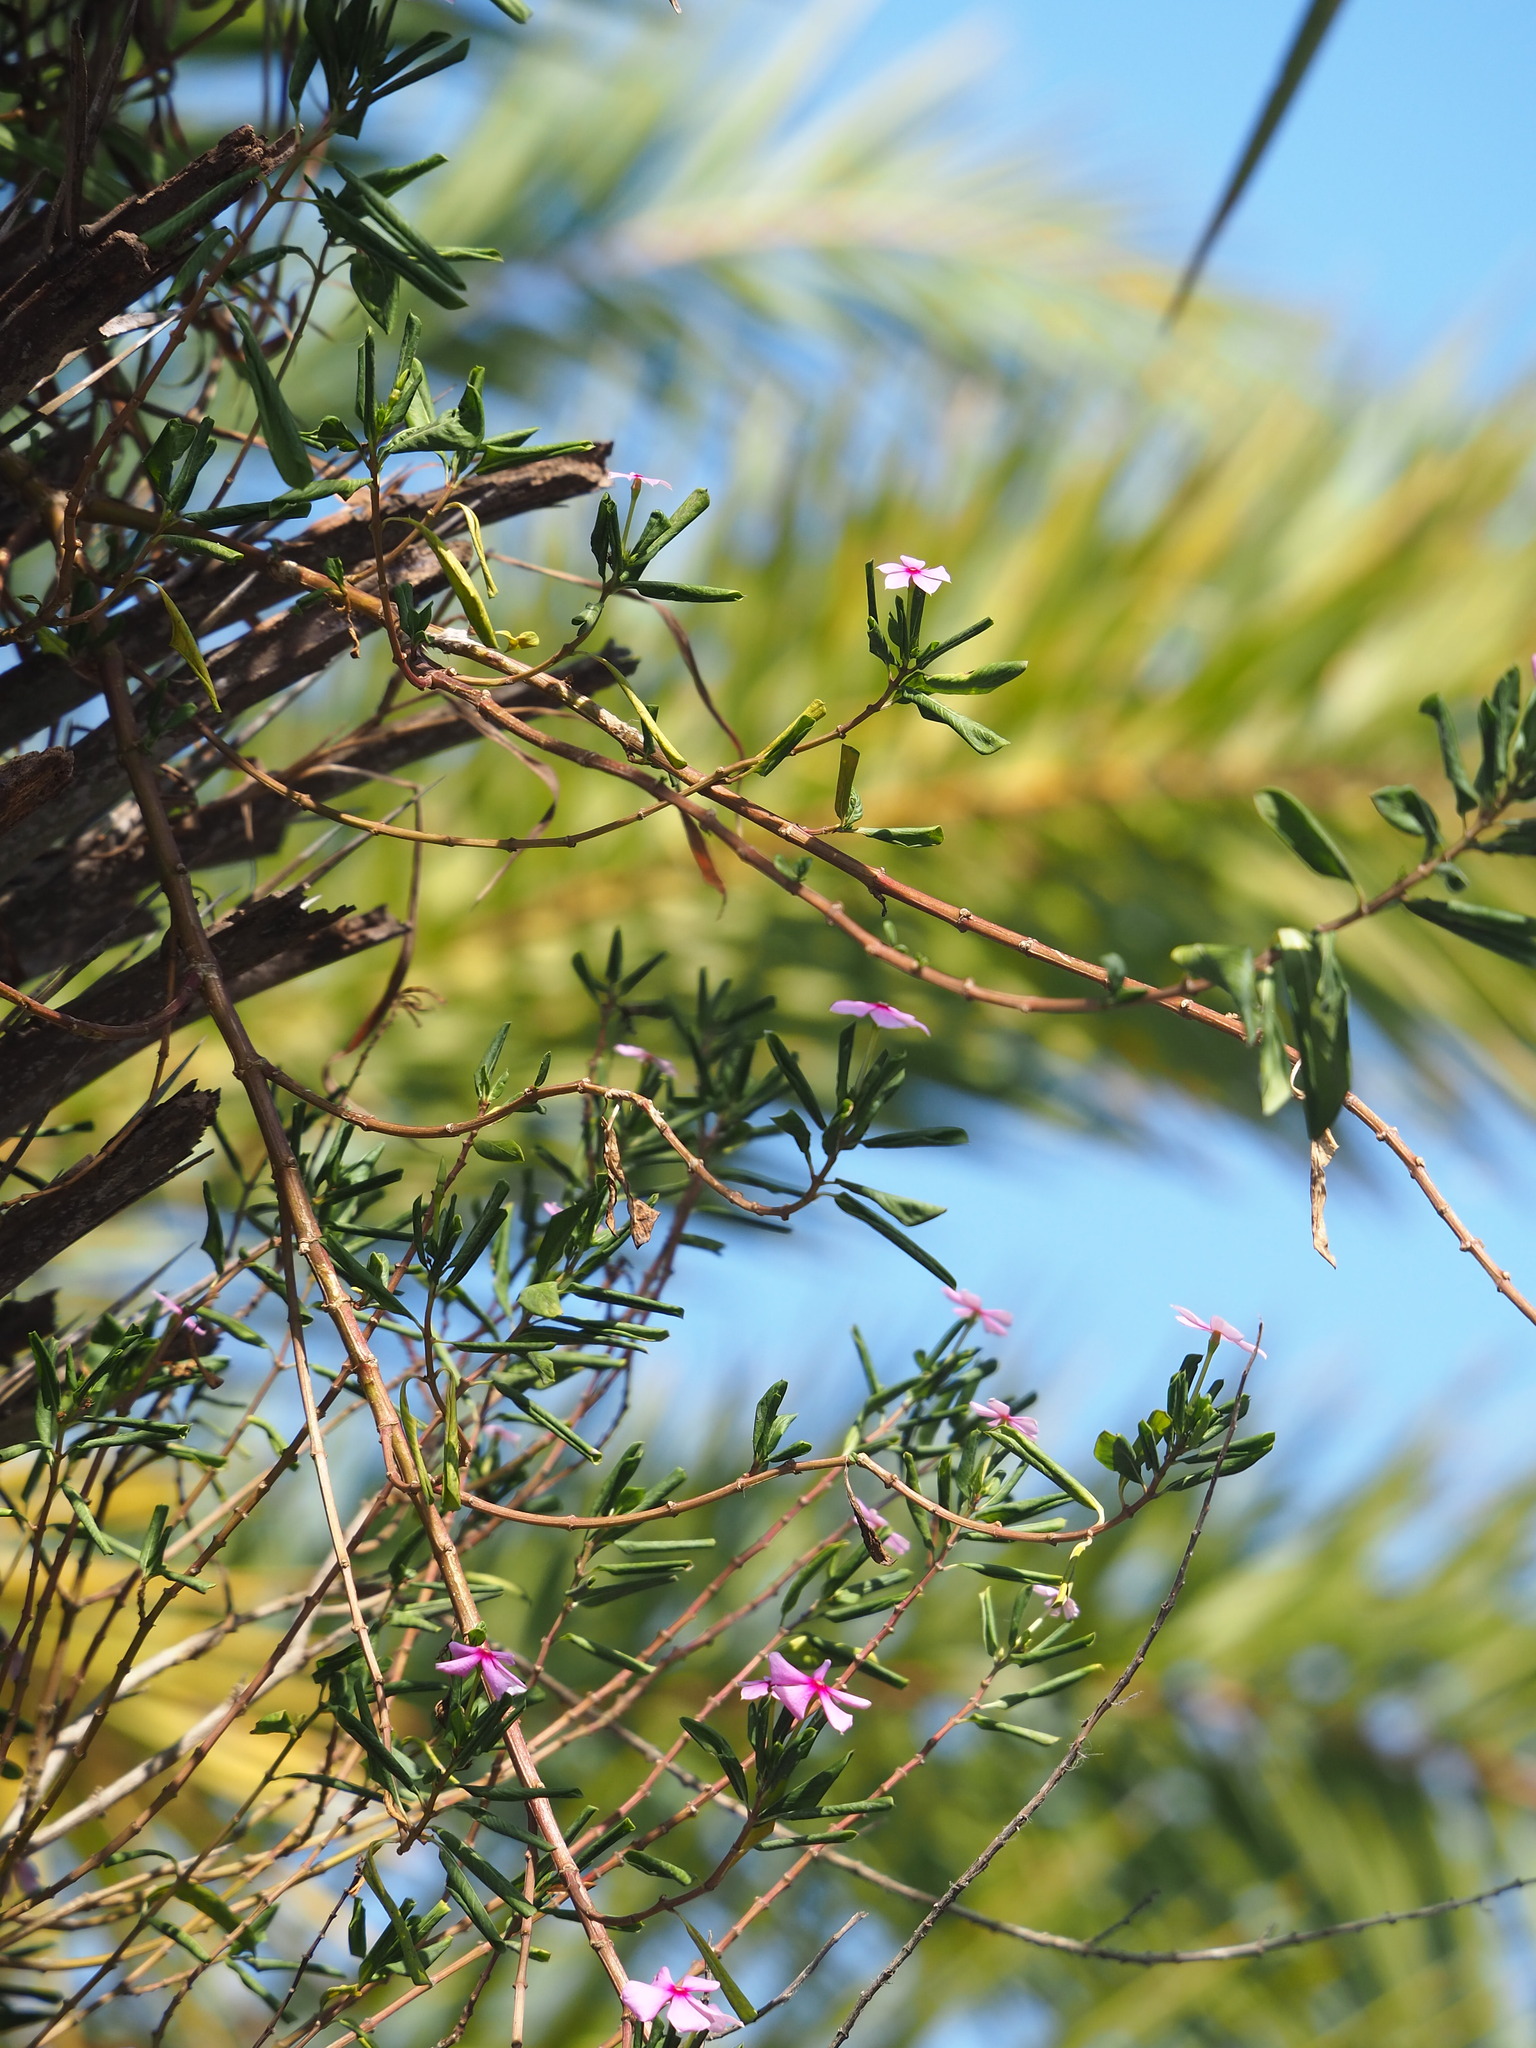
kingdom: Plantae
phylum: Tracheophyta
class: Magnoliopsida
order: Gentianales
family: Apocynaceae
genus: Catharanthus
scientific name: Catharanthus roseus
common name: Madagascar periwinkle
